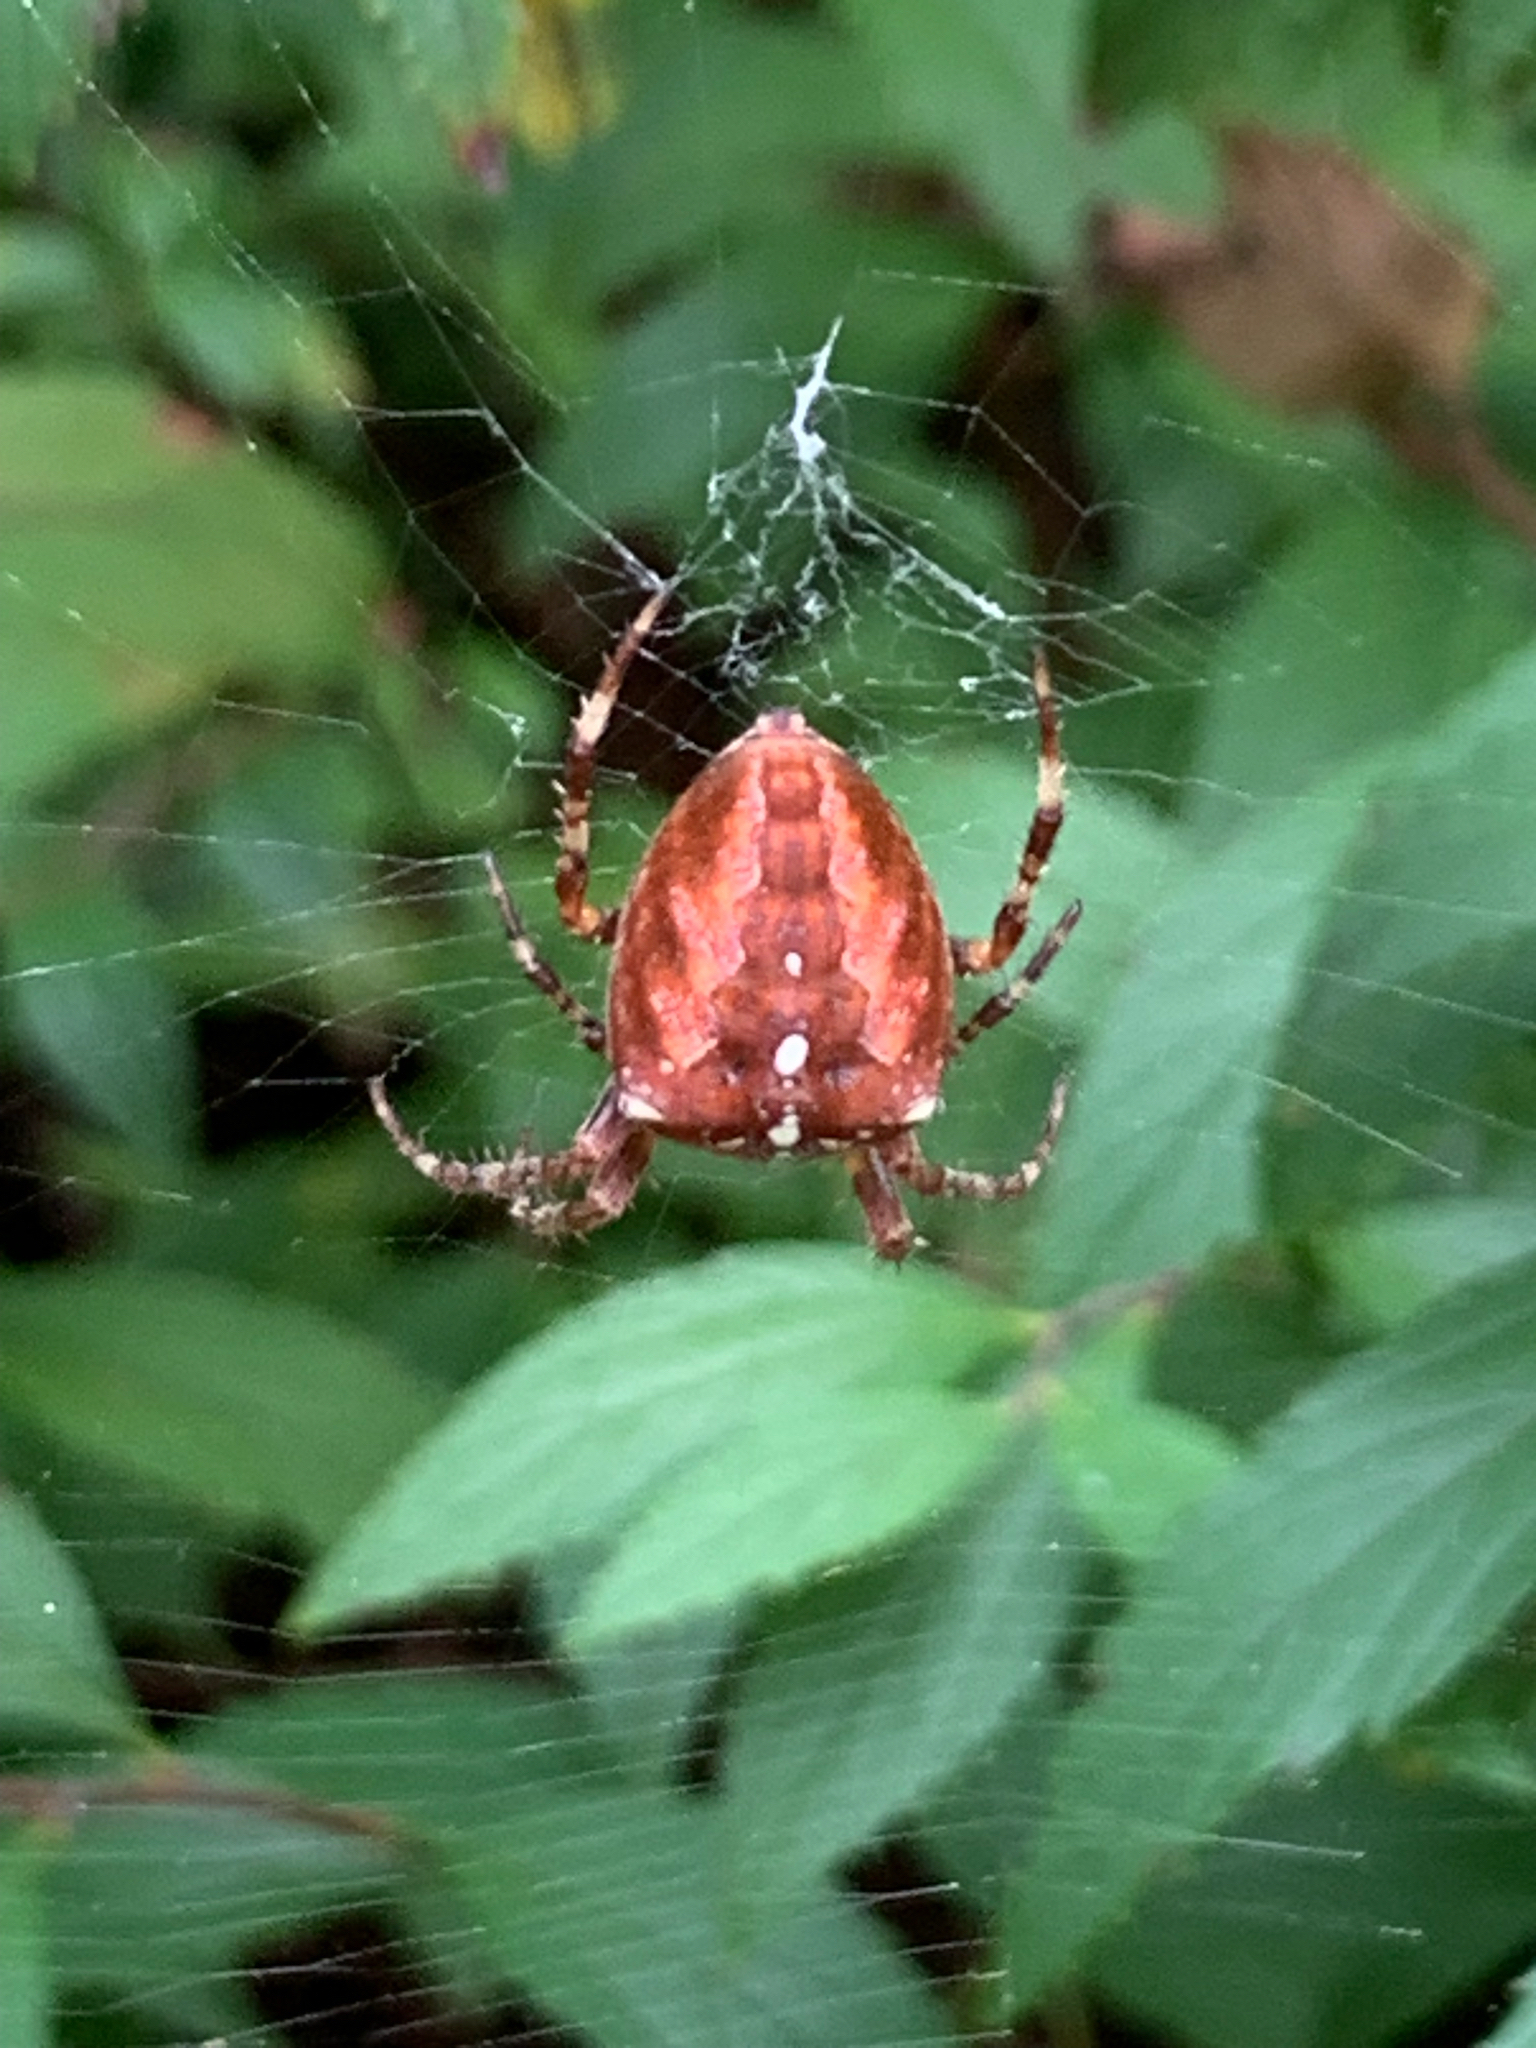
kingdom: Animalia
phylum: Arthropoda
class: Arachnida
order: Araneae
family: Araneidae
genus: Araneus
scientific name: Araneus diadematus
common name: Cross orbweaver
